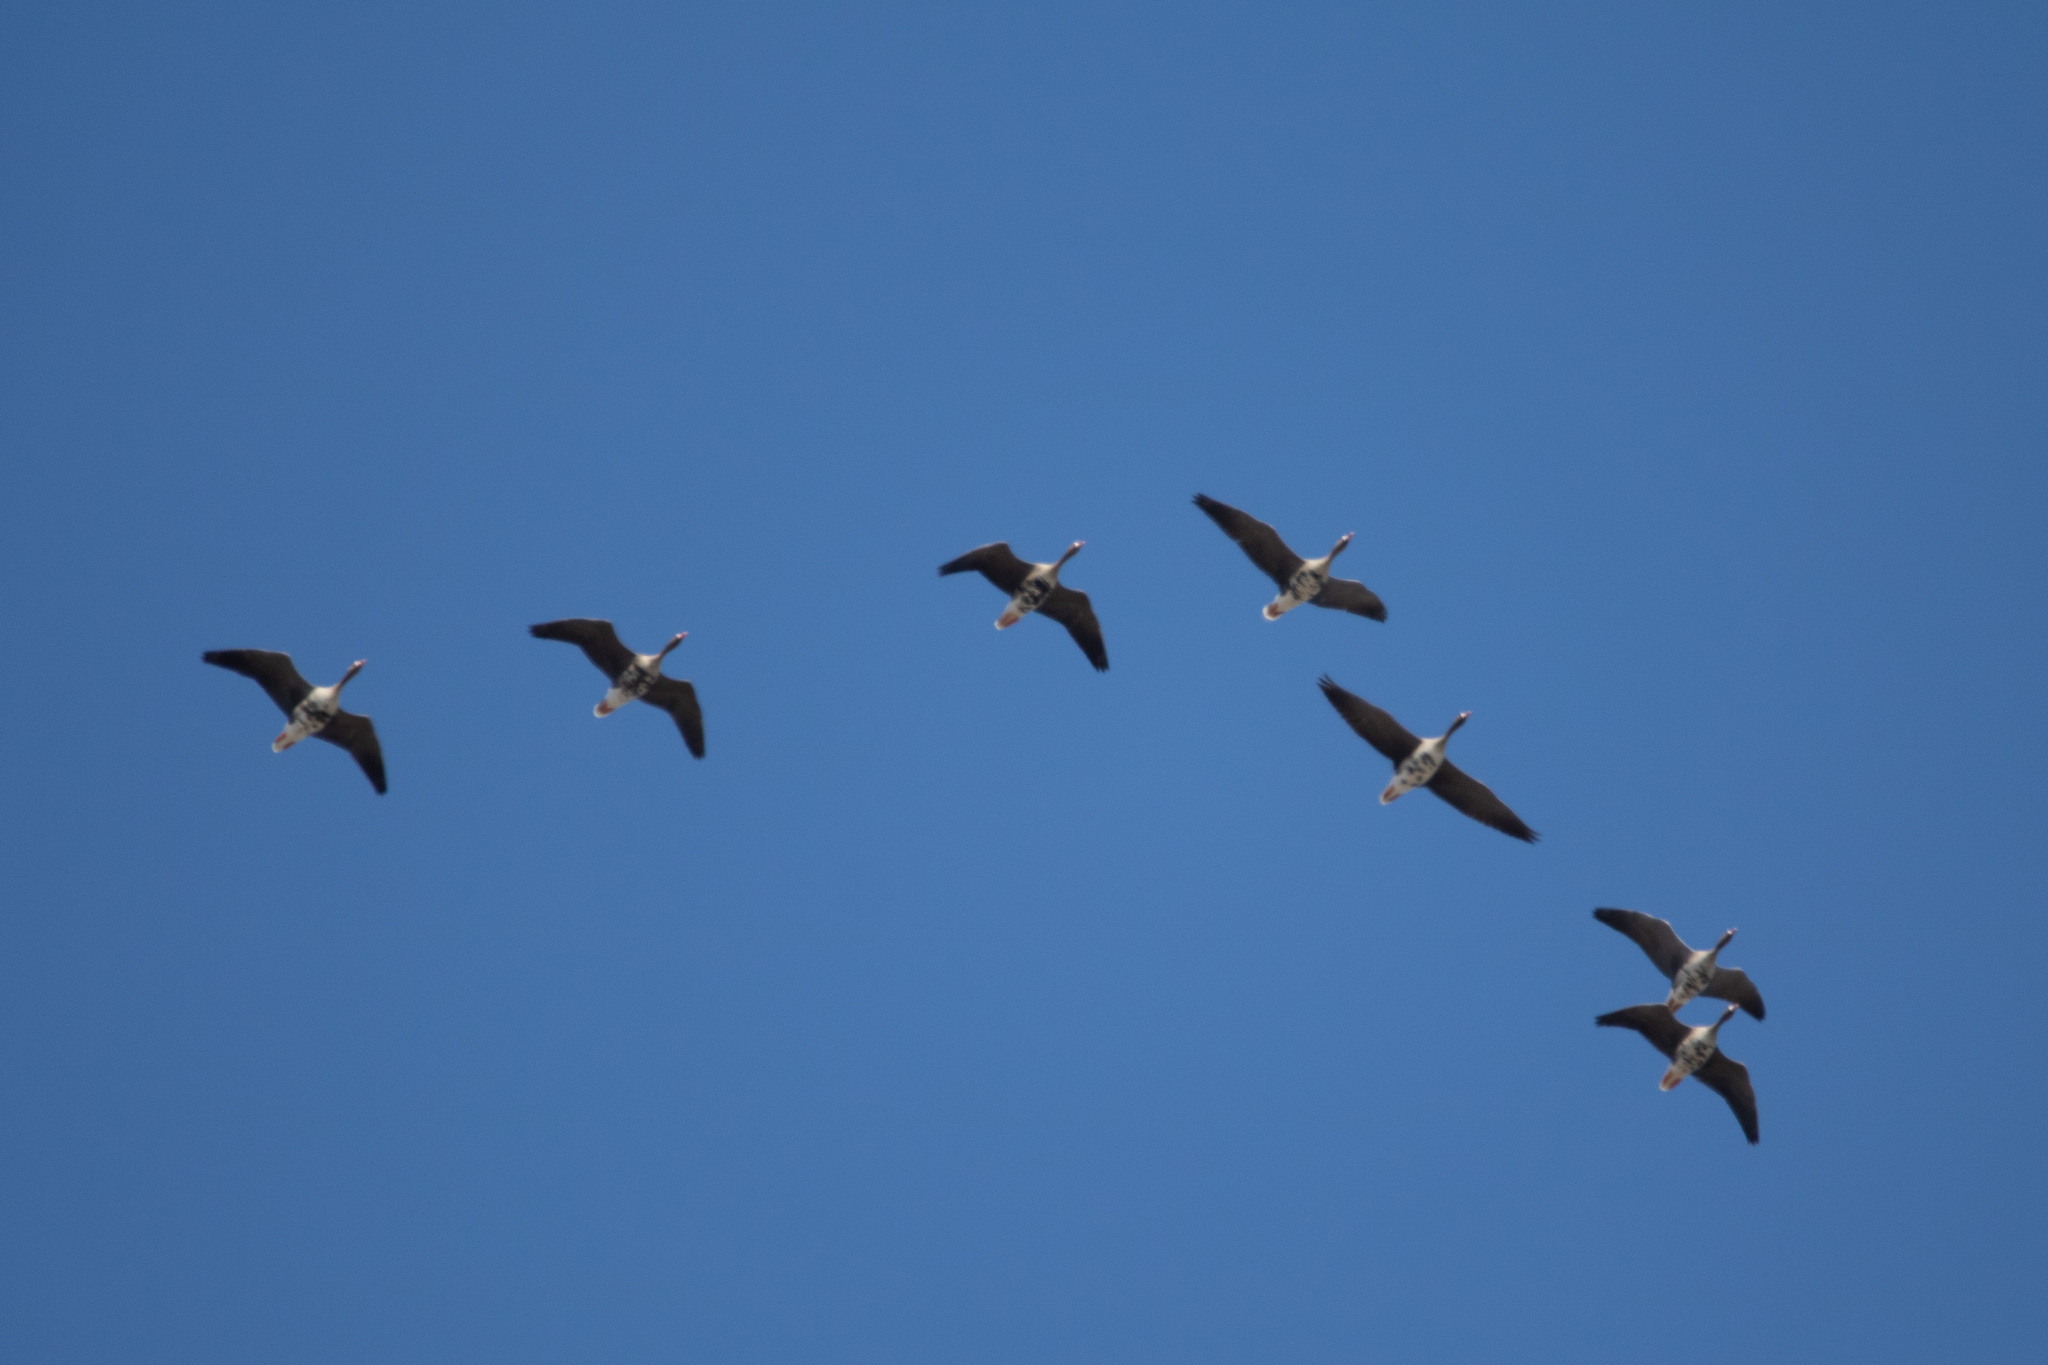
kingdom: Animalia
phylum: Chordata
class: Aves
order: Anseriformes
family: Anatidae
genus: Anser
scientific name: Anser albifrons
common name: Greater white-fronted goose
